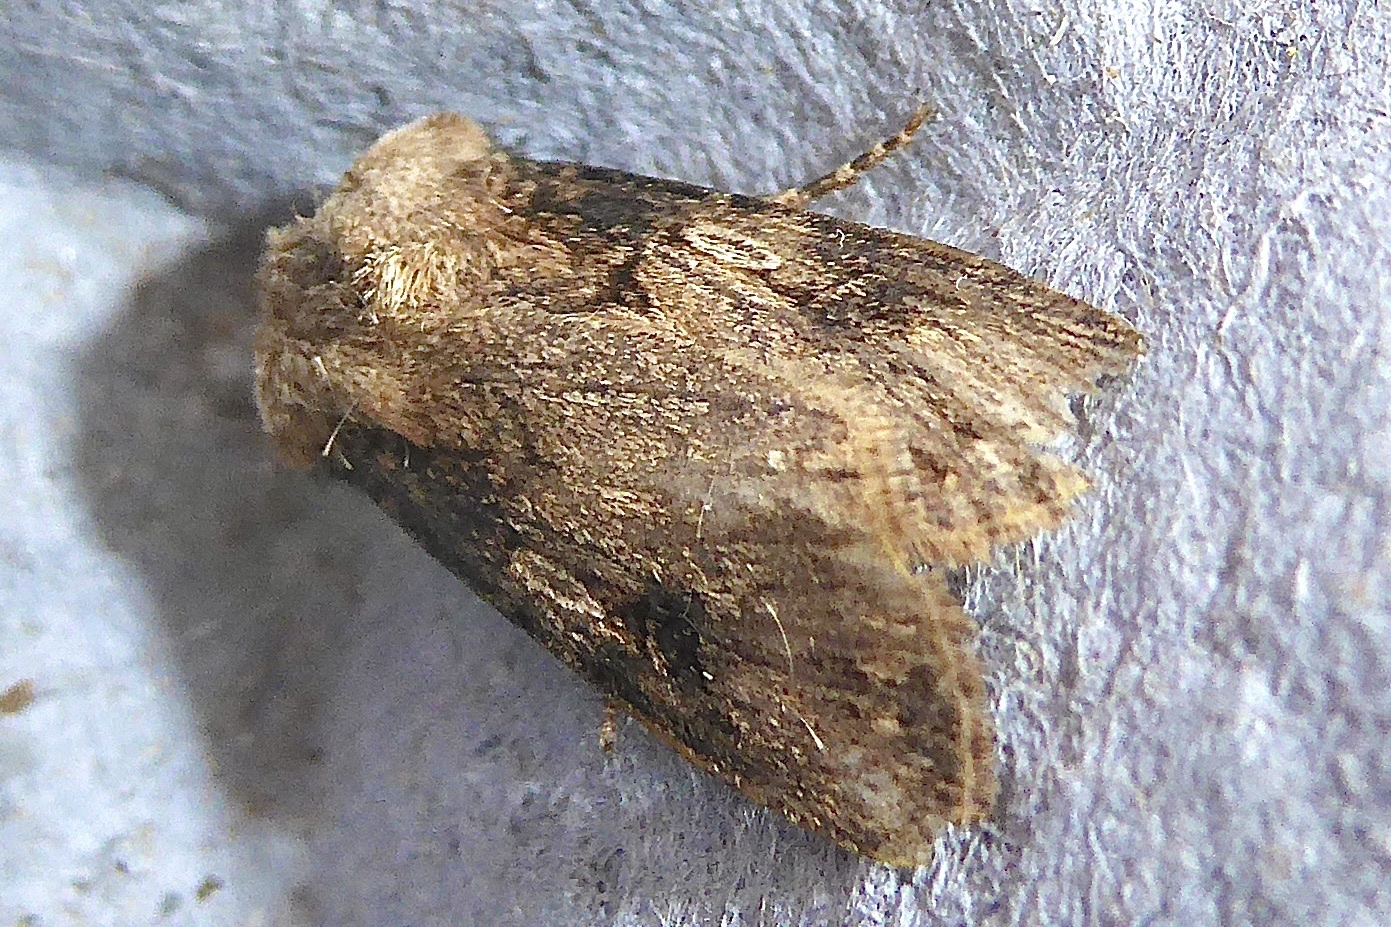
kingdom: Animalia
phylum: Arthropoda
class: Insecta
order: Lepidoptera
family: Noctuidae
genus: Agrotis
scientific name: Agrotis puta
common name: Shuttle-shaped dart
